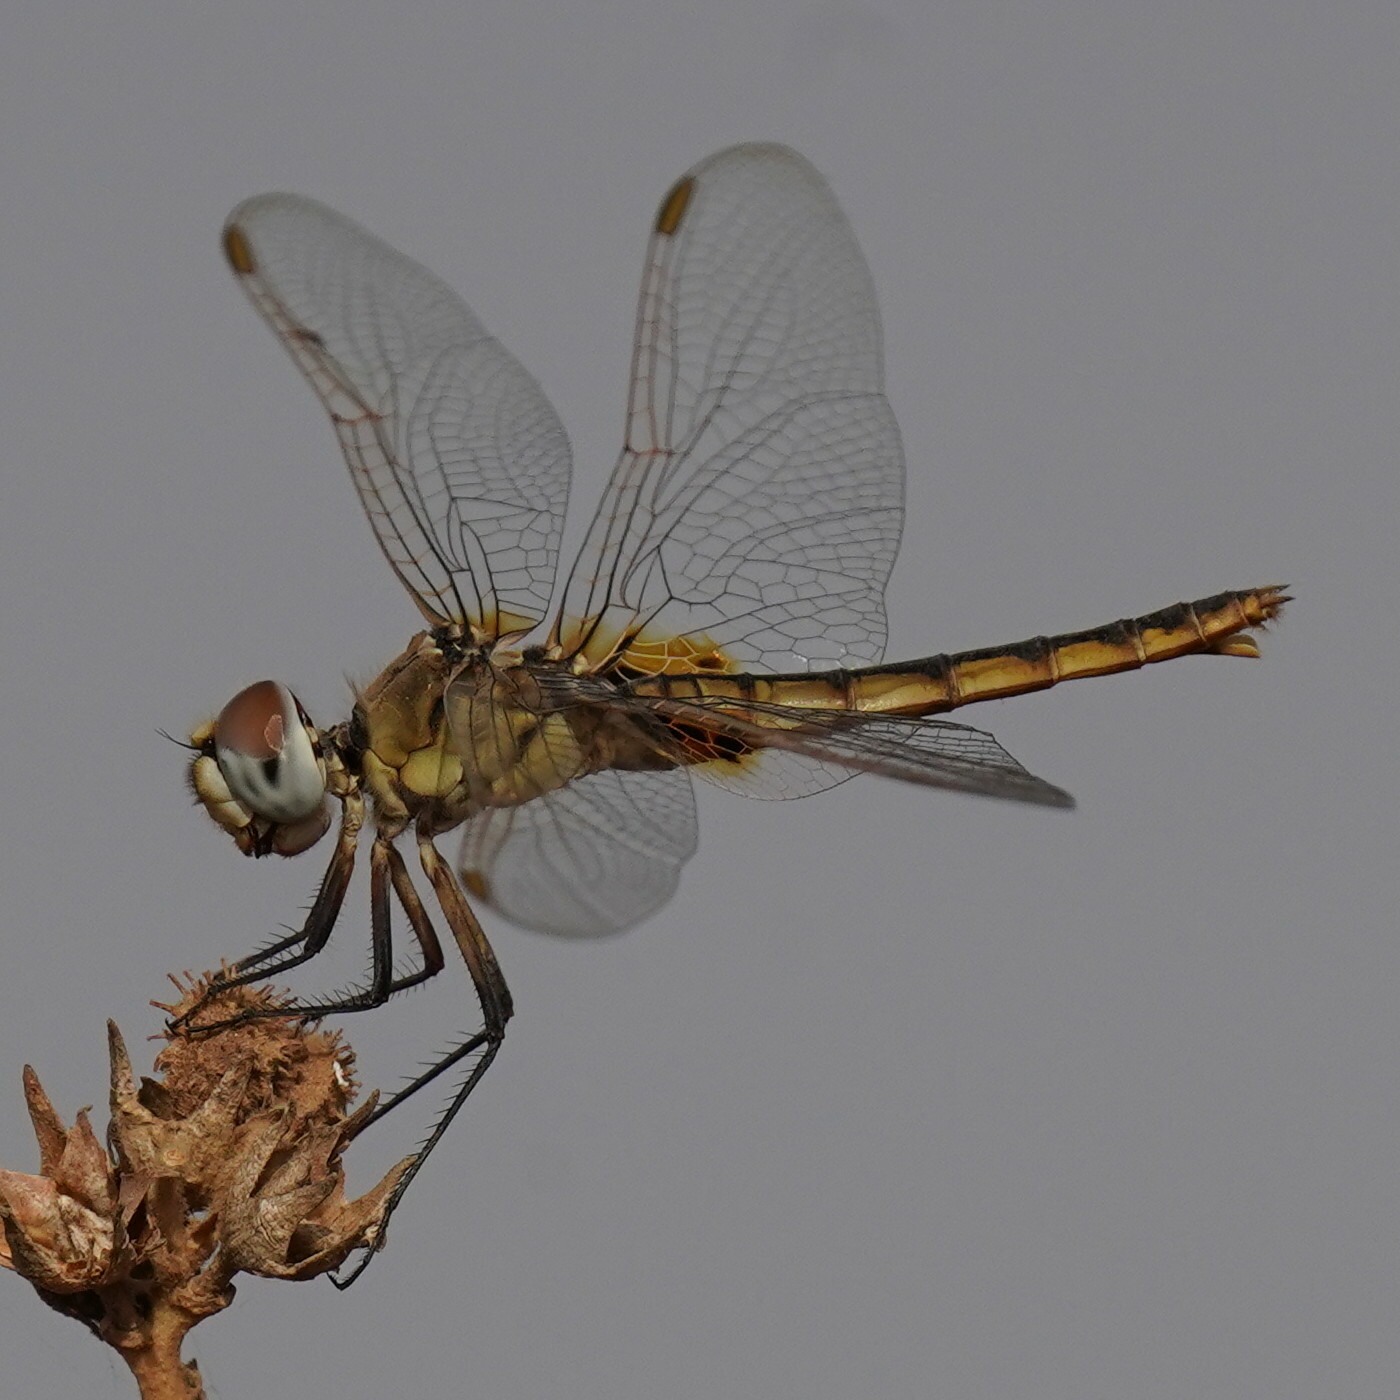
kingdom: Animalia
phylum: Arthropoda
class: Insecta
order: Odonata
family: Libellulidae
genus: Urothemis
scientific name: Urothemis edwardsii
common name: Blue basker
